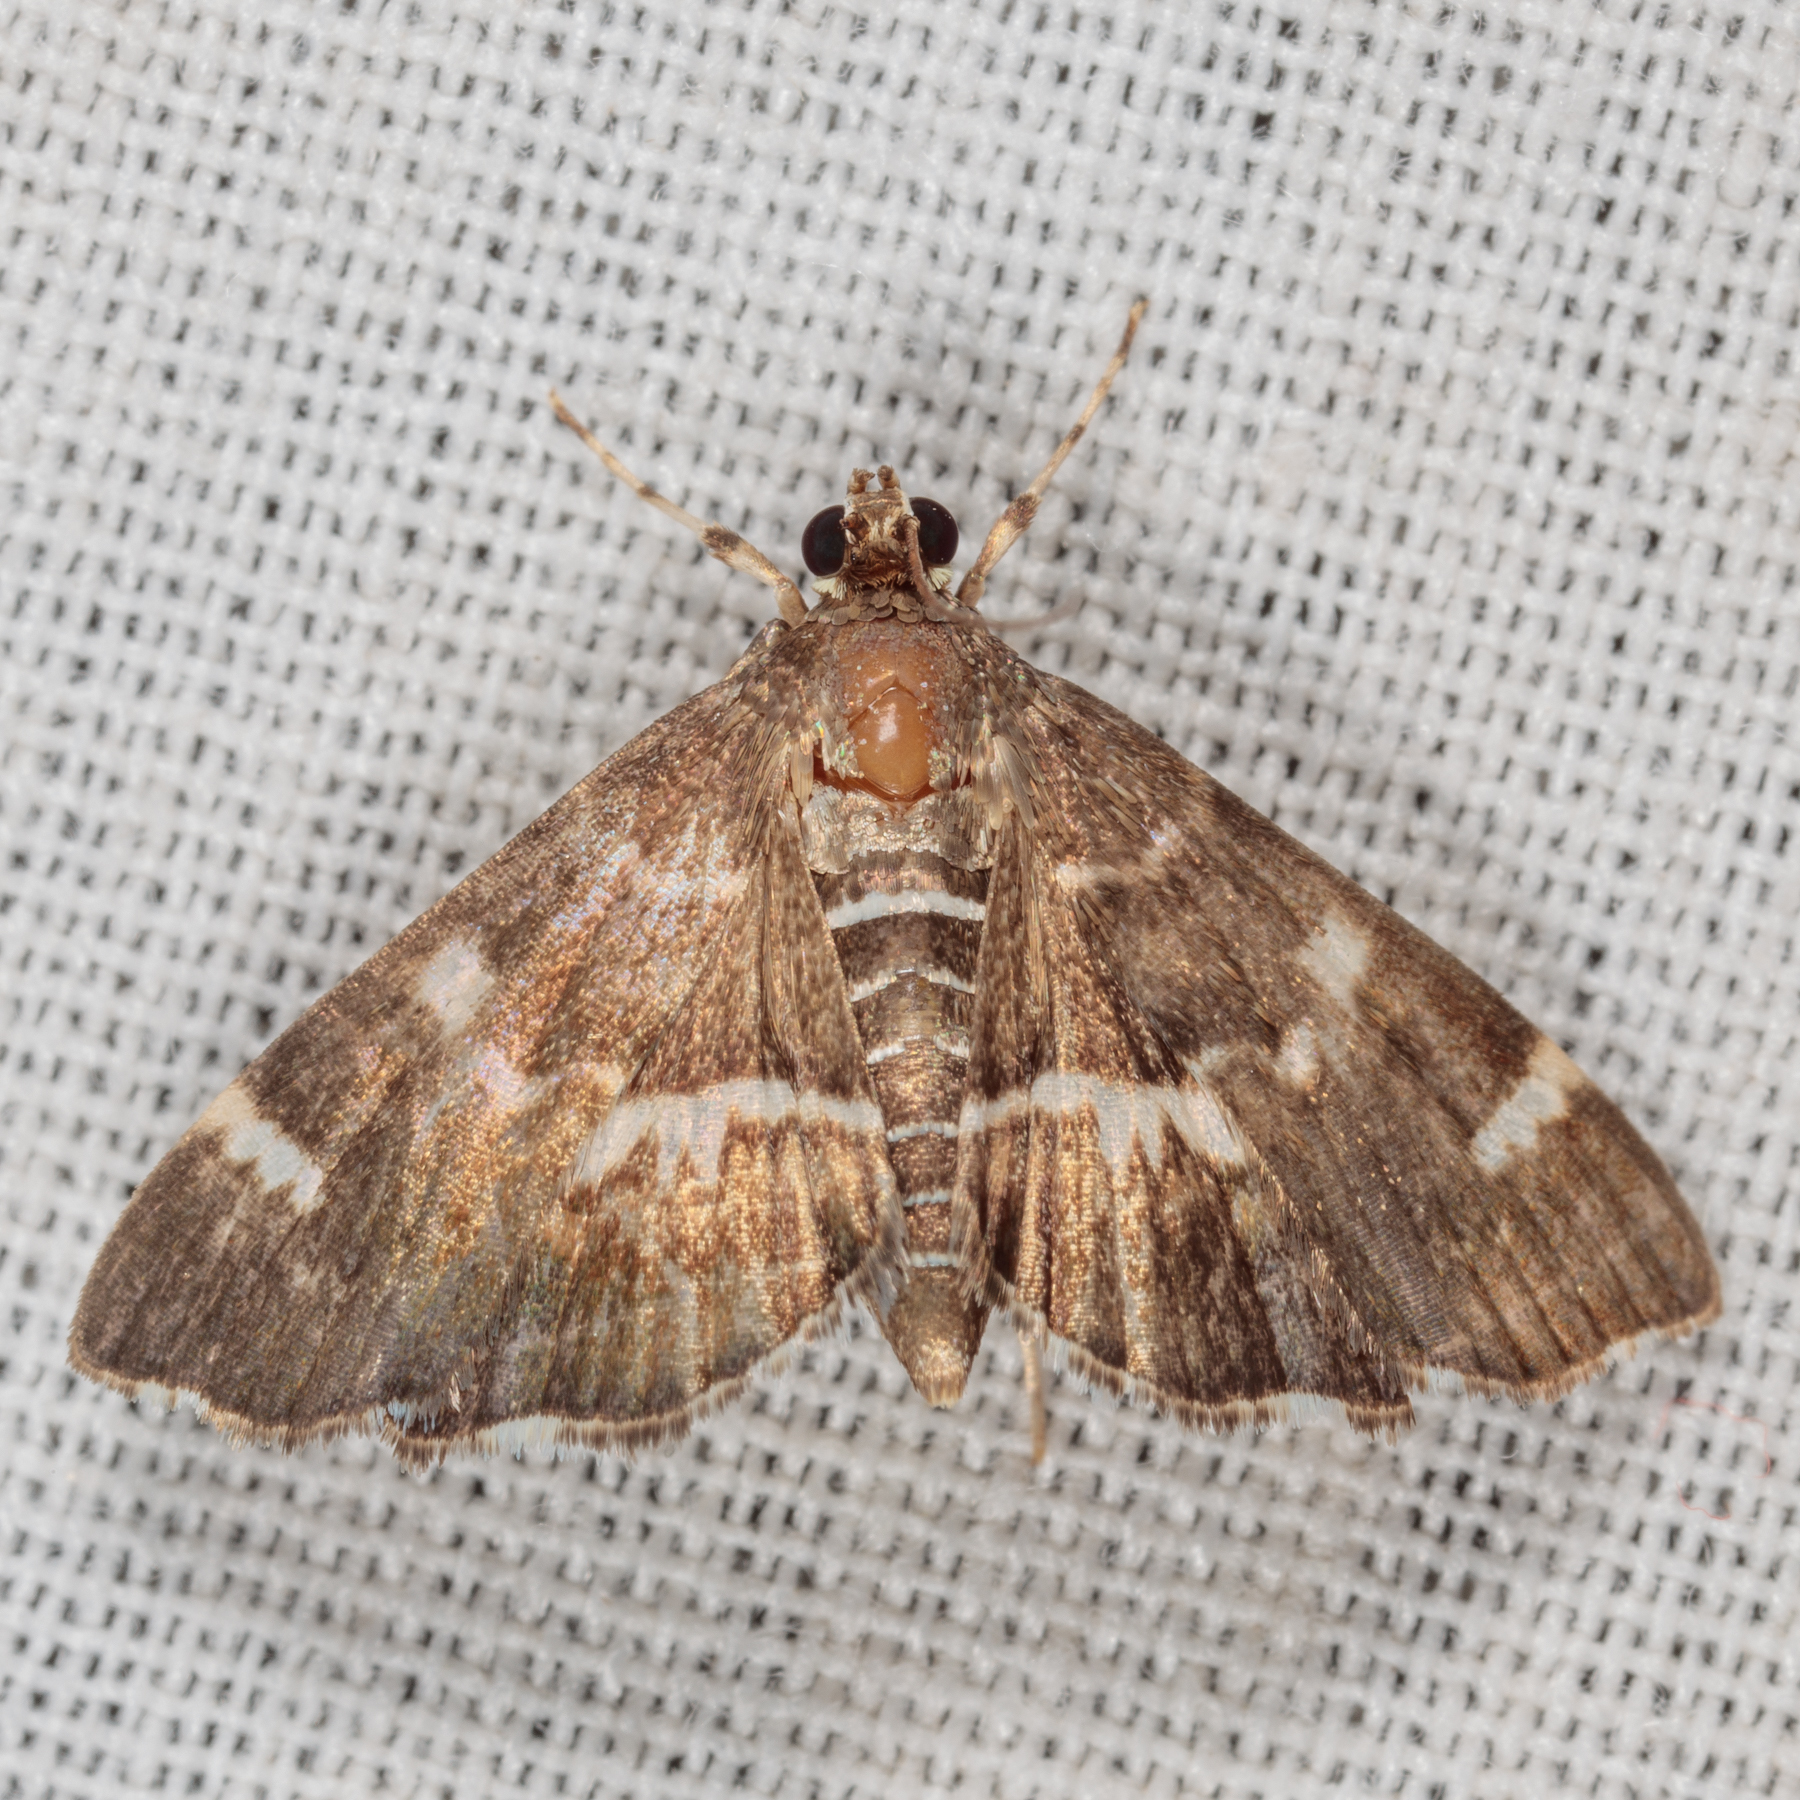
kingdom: Animalia
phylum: Arthropoda
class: Insecta
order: Lepidoptera
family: Crambidae
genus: Hymenia
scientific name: Hymenia perspectalis
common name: Spotted beet webworm
